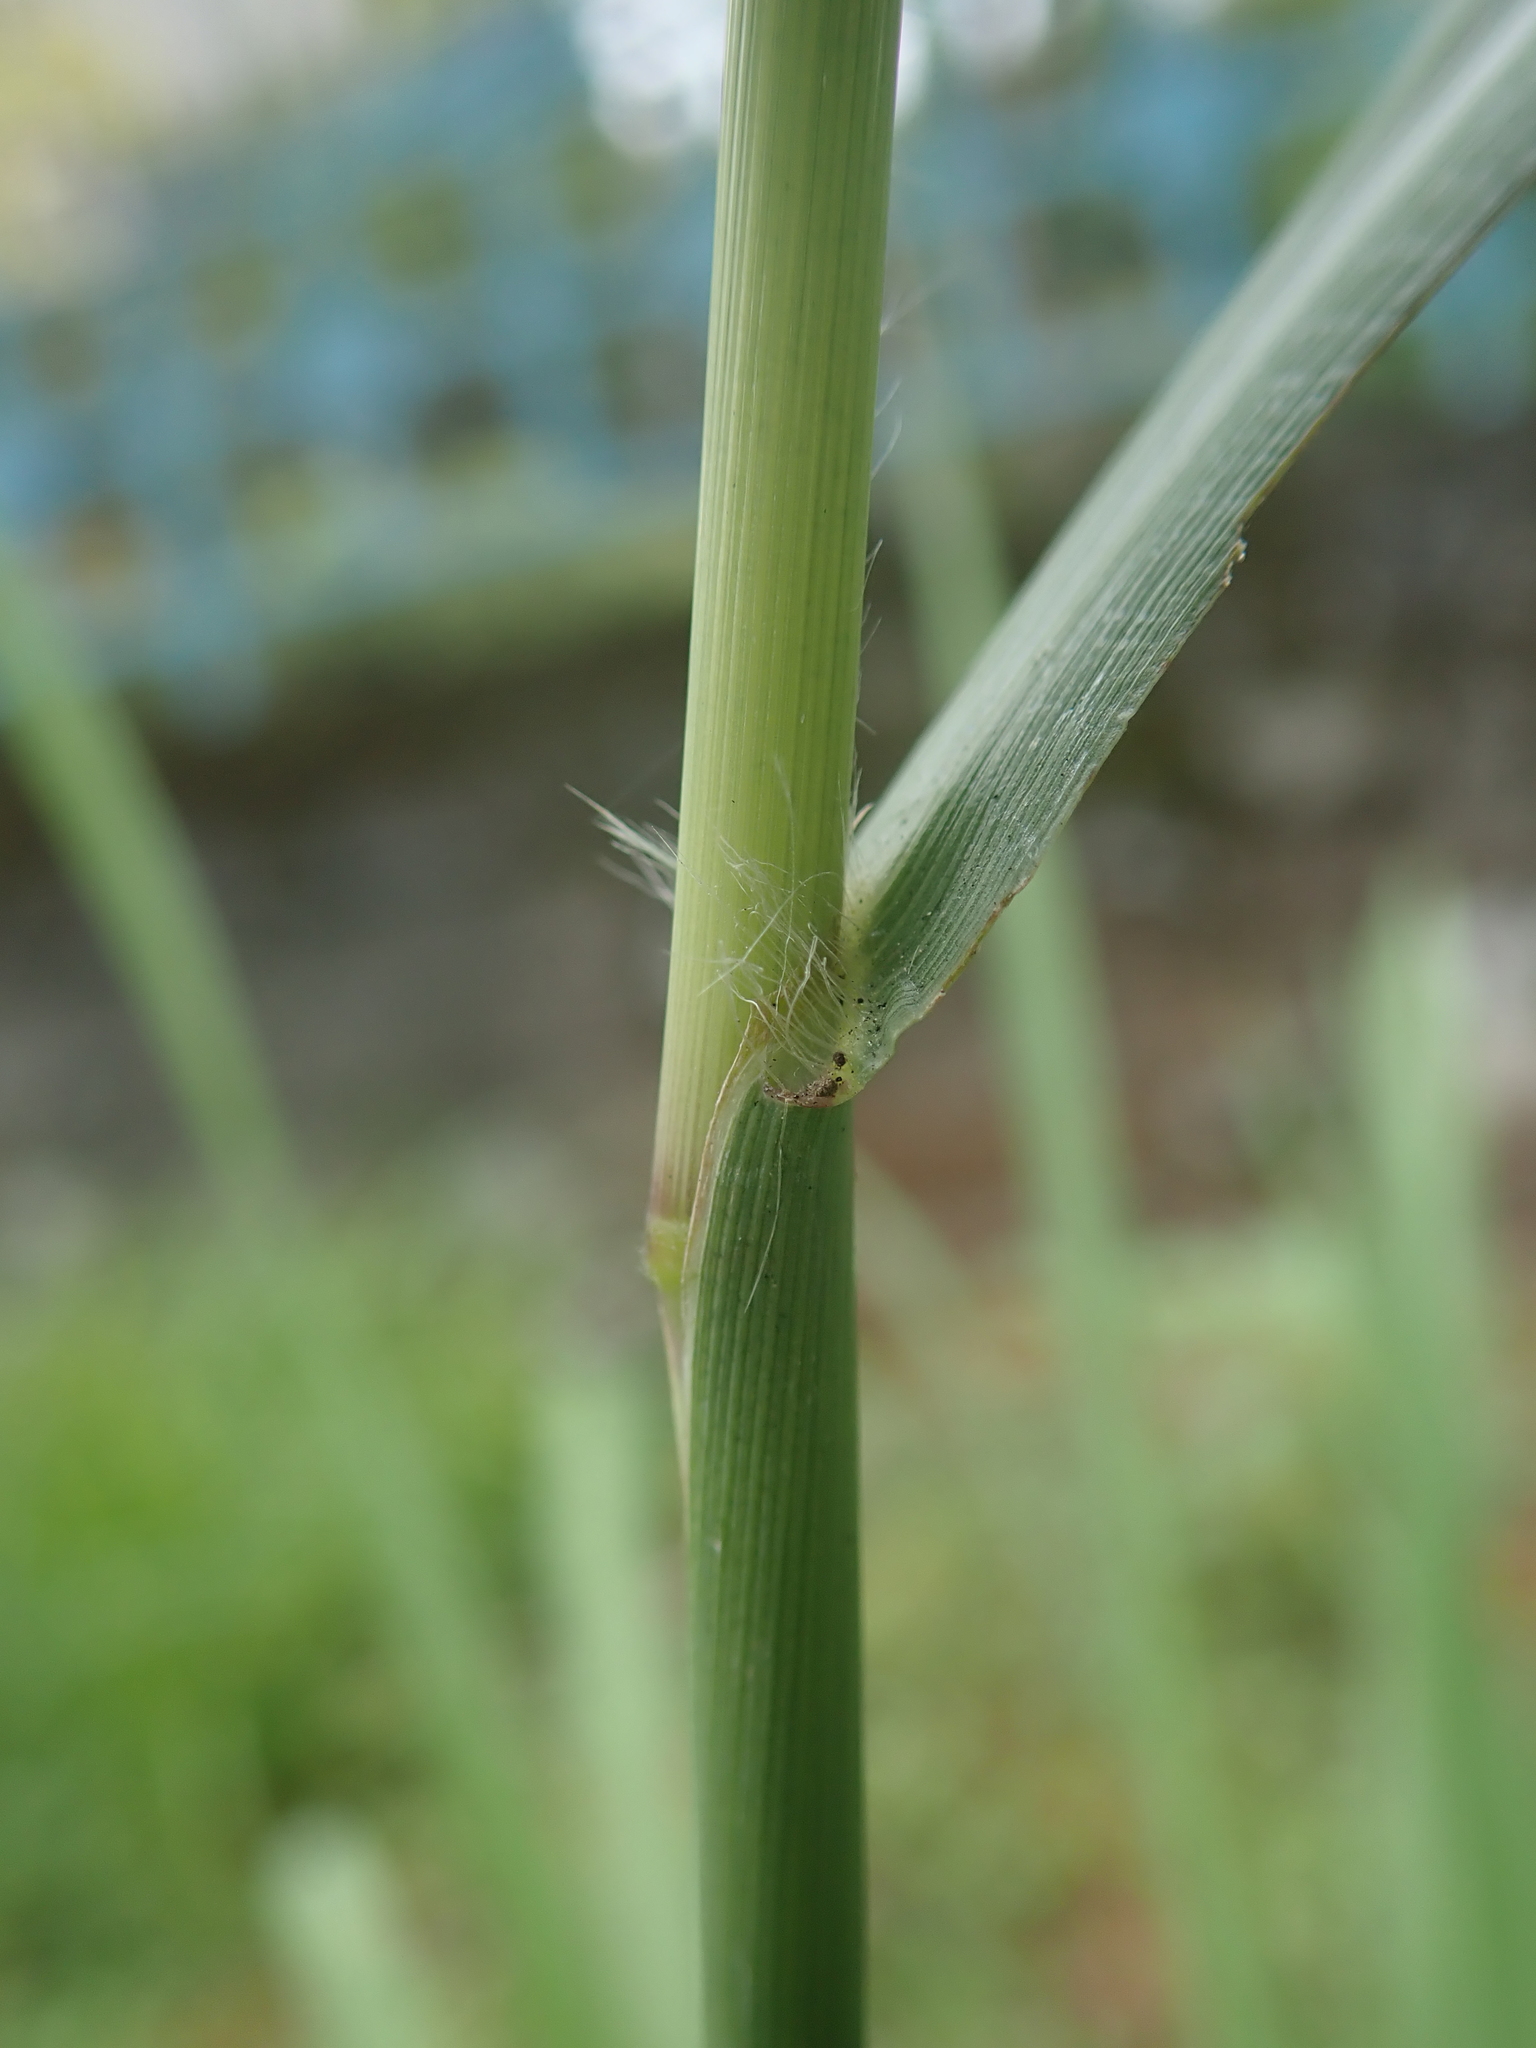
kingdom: Plantae
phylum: Tracheophyta
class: Liliopsida
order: Poales
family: Poaceae
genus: Paspalum
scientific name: Paspalum urvillei
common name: Vasey's grass
